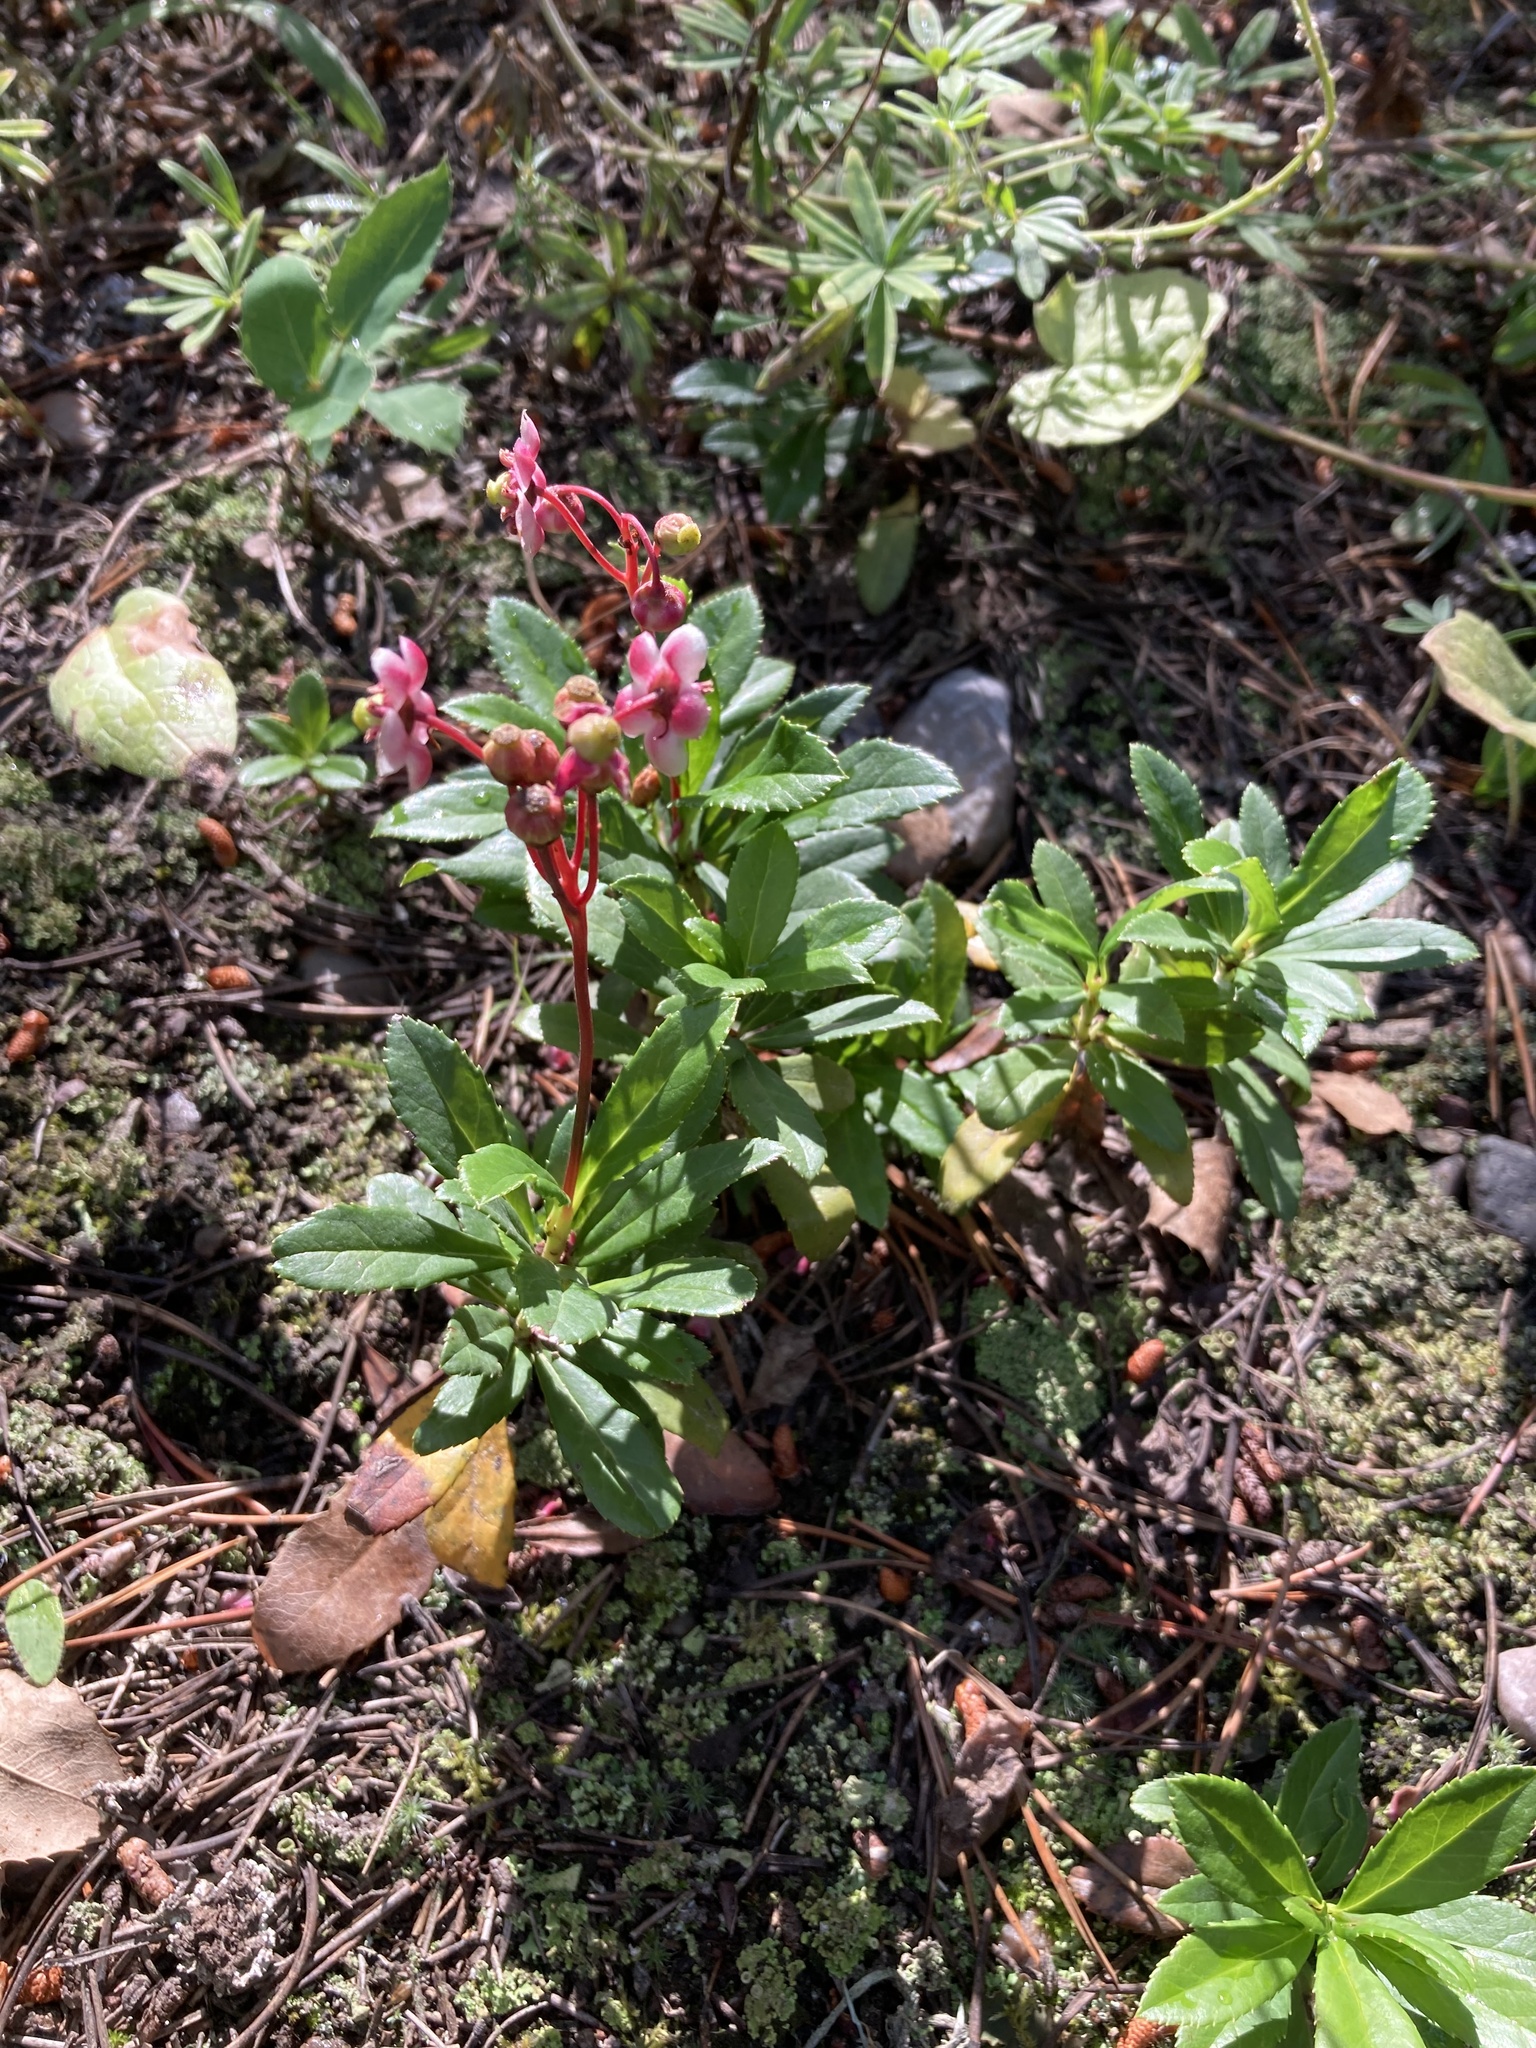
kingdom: Plantae
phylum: Tracheophyta
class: Magnoliopsida
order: Ericales
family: Ericaceae
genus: Chimaphila
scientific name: Chimaphila umbellata
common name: Pipsissewa
